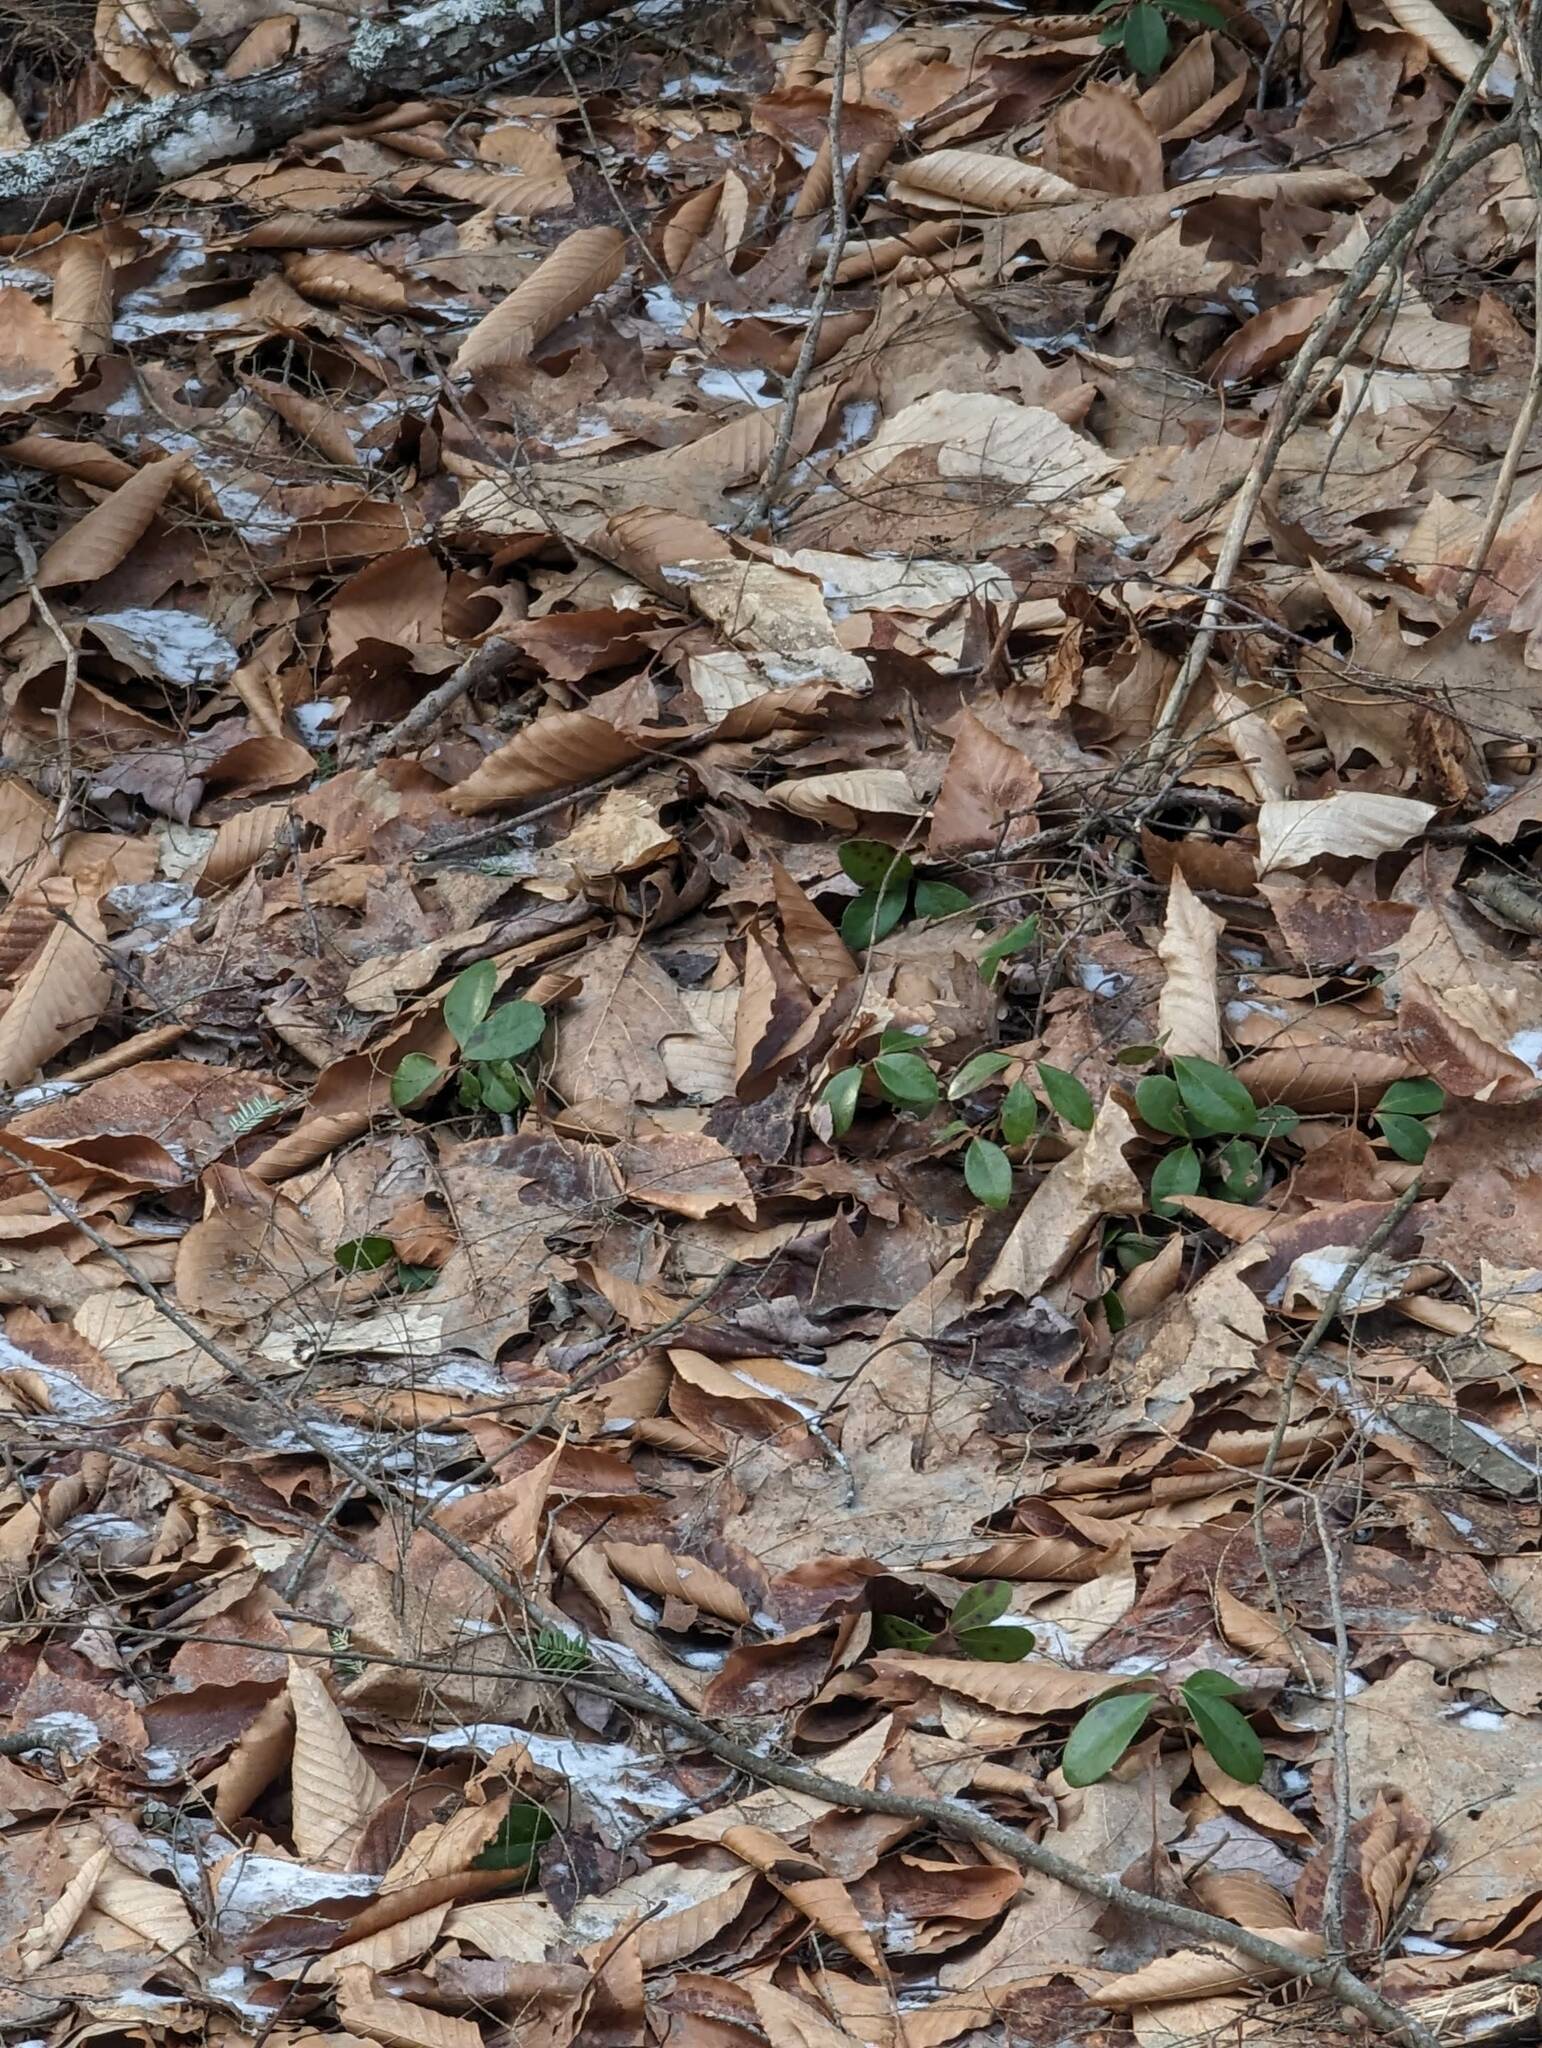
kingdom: Plantae
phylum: Tracheophyta
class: Magnoliopsida
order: Ericales
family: Ericaceae
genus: Gaultheria
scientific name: Gaultheria procumbens
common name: Checkerberry
